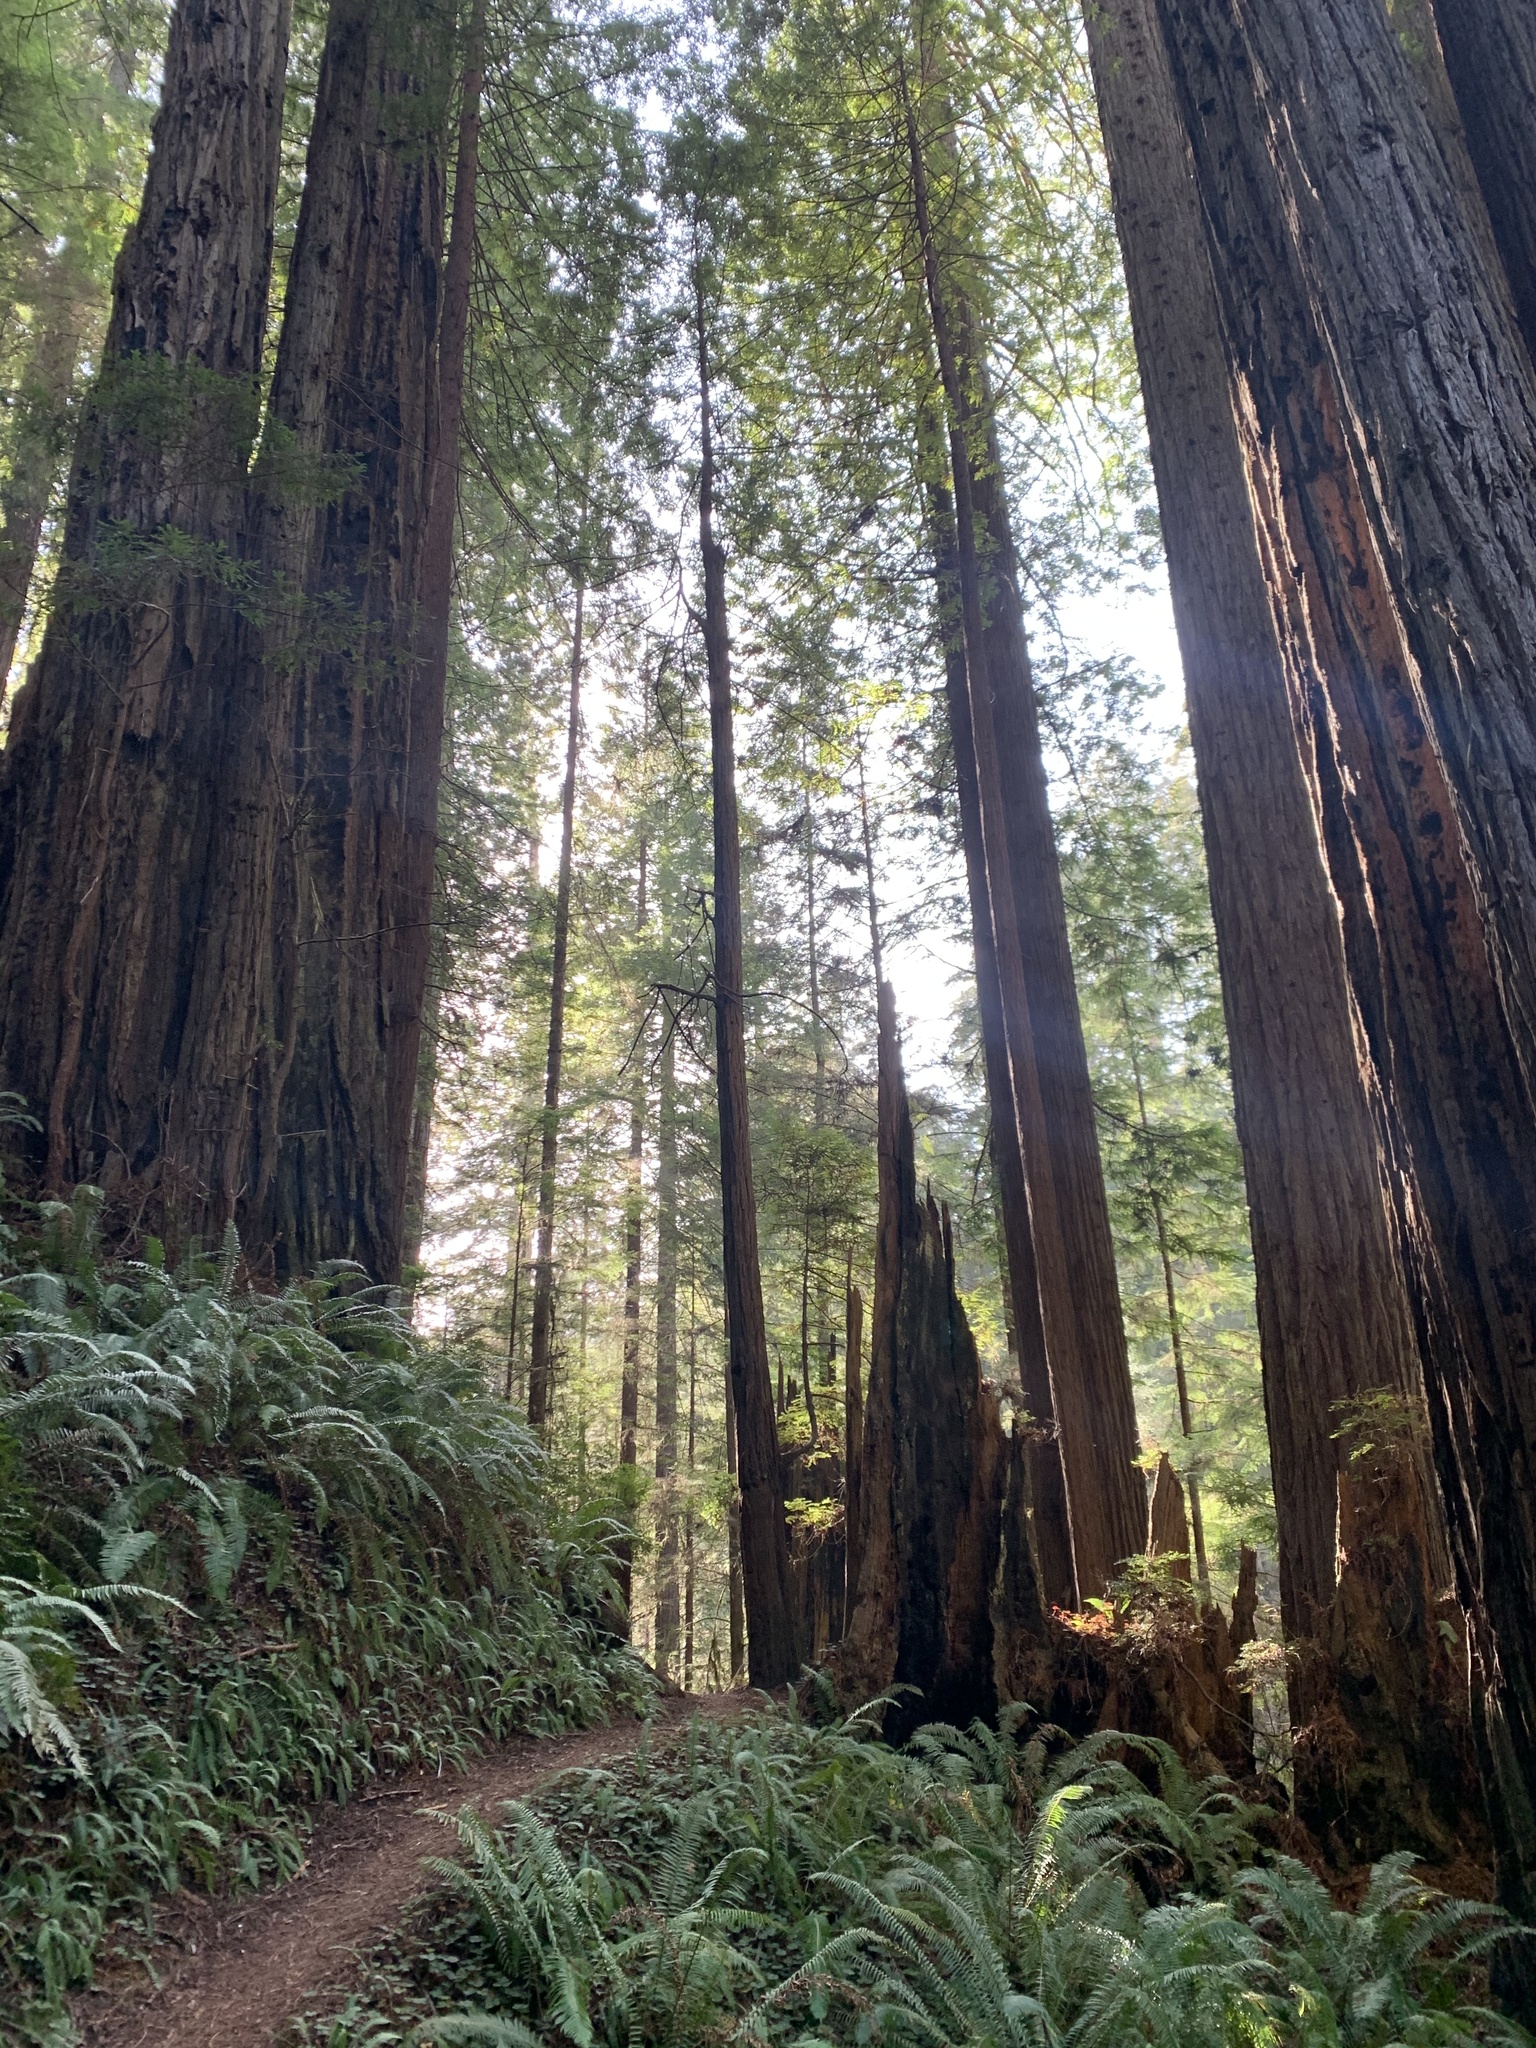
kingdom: Plantae
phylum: Tracheophyta
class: Pinopsida
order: Pinales
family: Cupressaceae
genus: Sequoia
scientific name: Sequoia sempervirens
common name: Coast redwood
